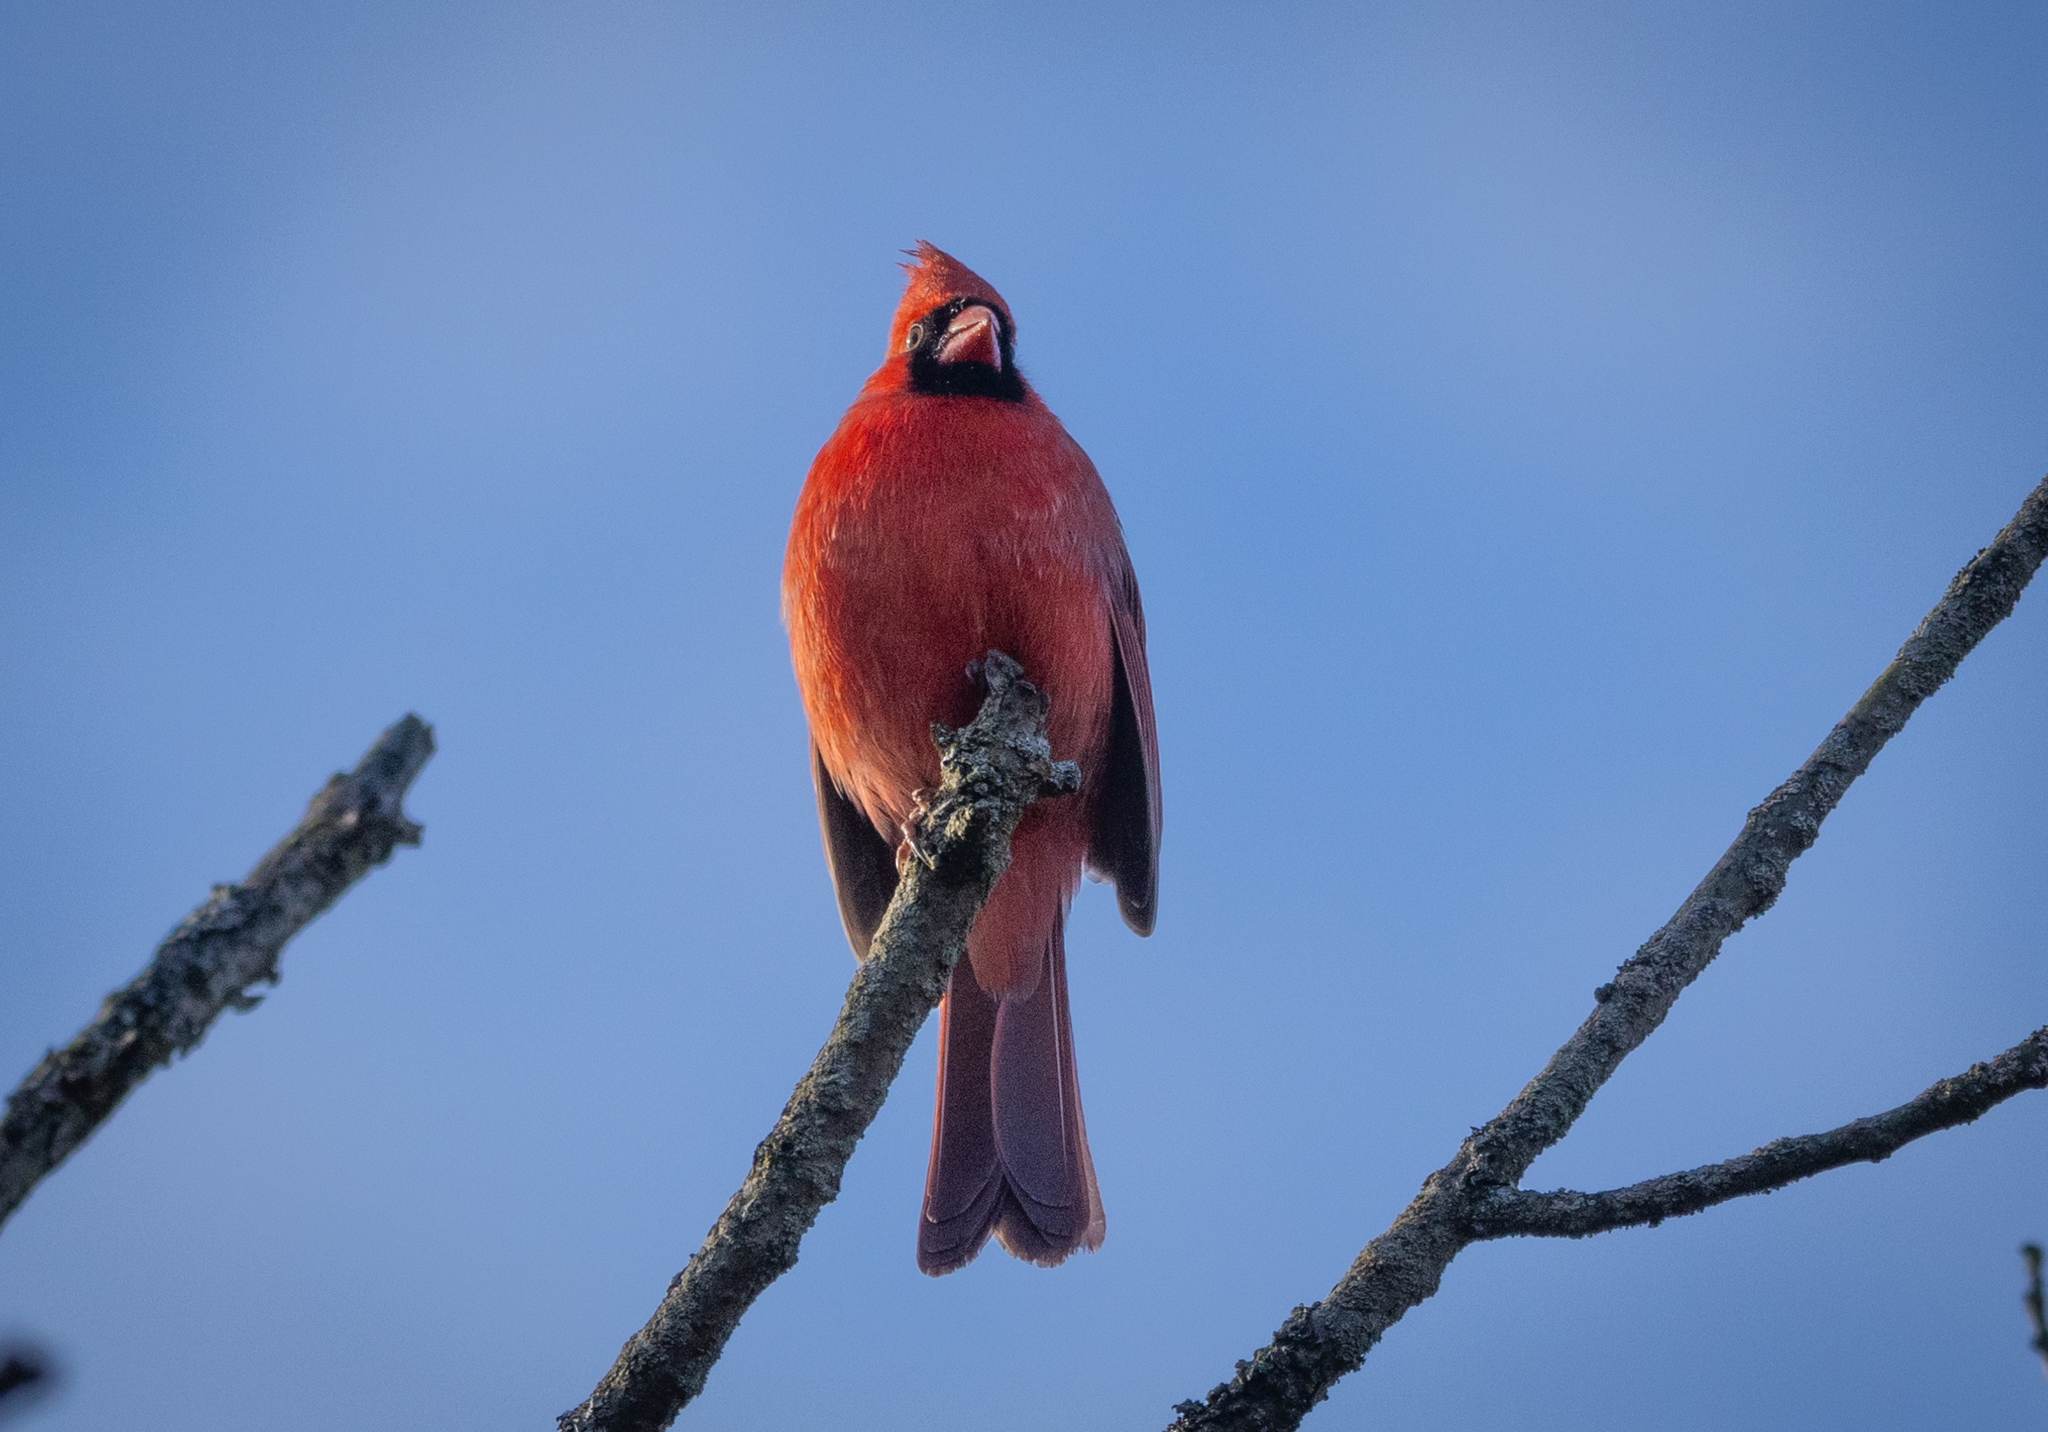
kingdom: Animalia
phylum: Chordata
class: Aves
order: Passeriformes
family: Cardinalidae
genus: Cardinalis
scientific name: Cardinalis cardinalis
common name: Northern cardinal
